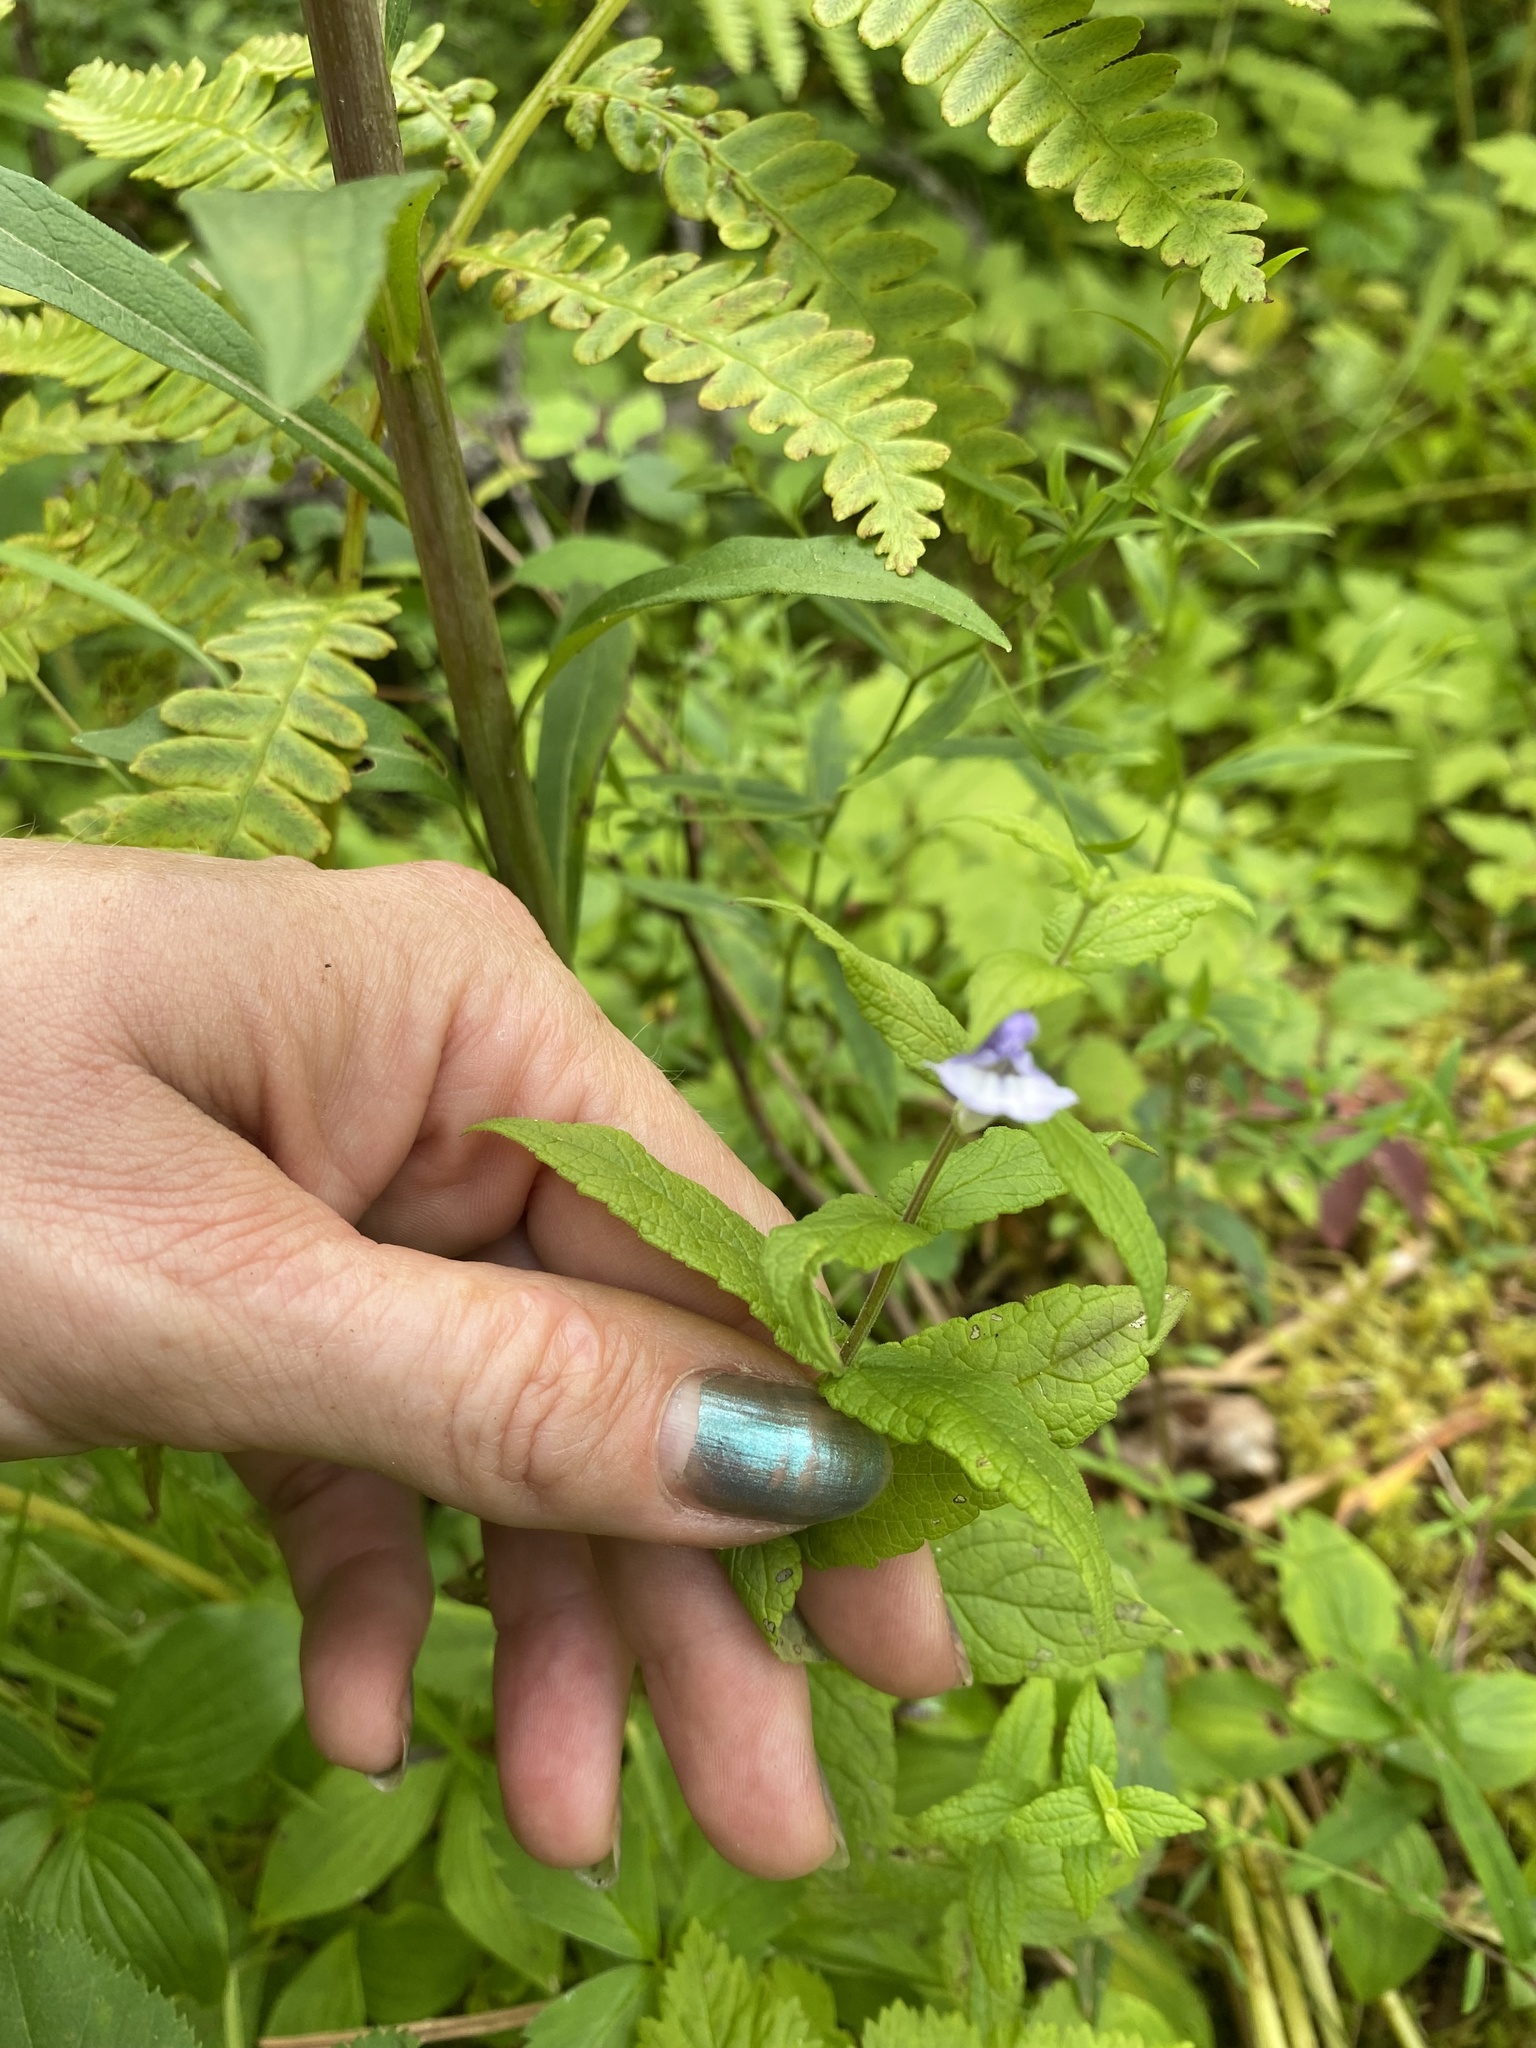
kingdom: Plantae
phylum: Tracheophyta
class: Magnoliopsida
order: Lamiales
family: Lamiaceae
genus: Scutellaria
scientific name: Scutellaria galericulata
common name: Skullcap
